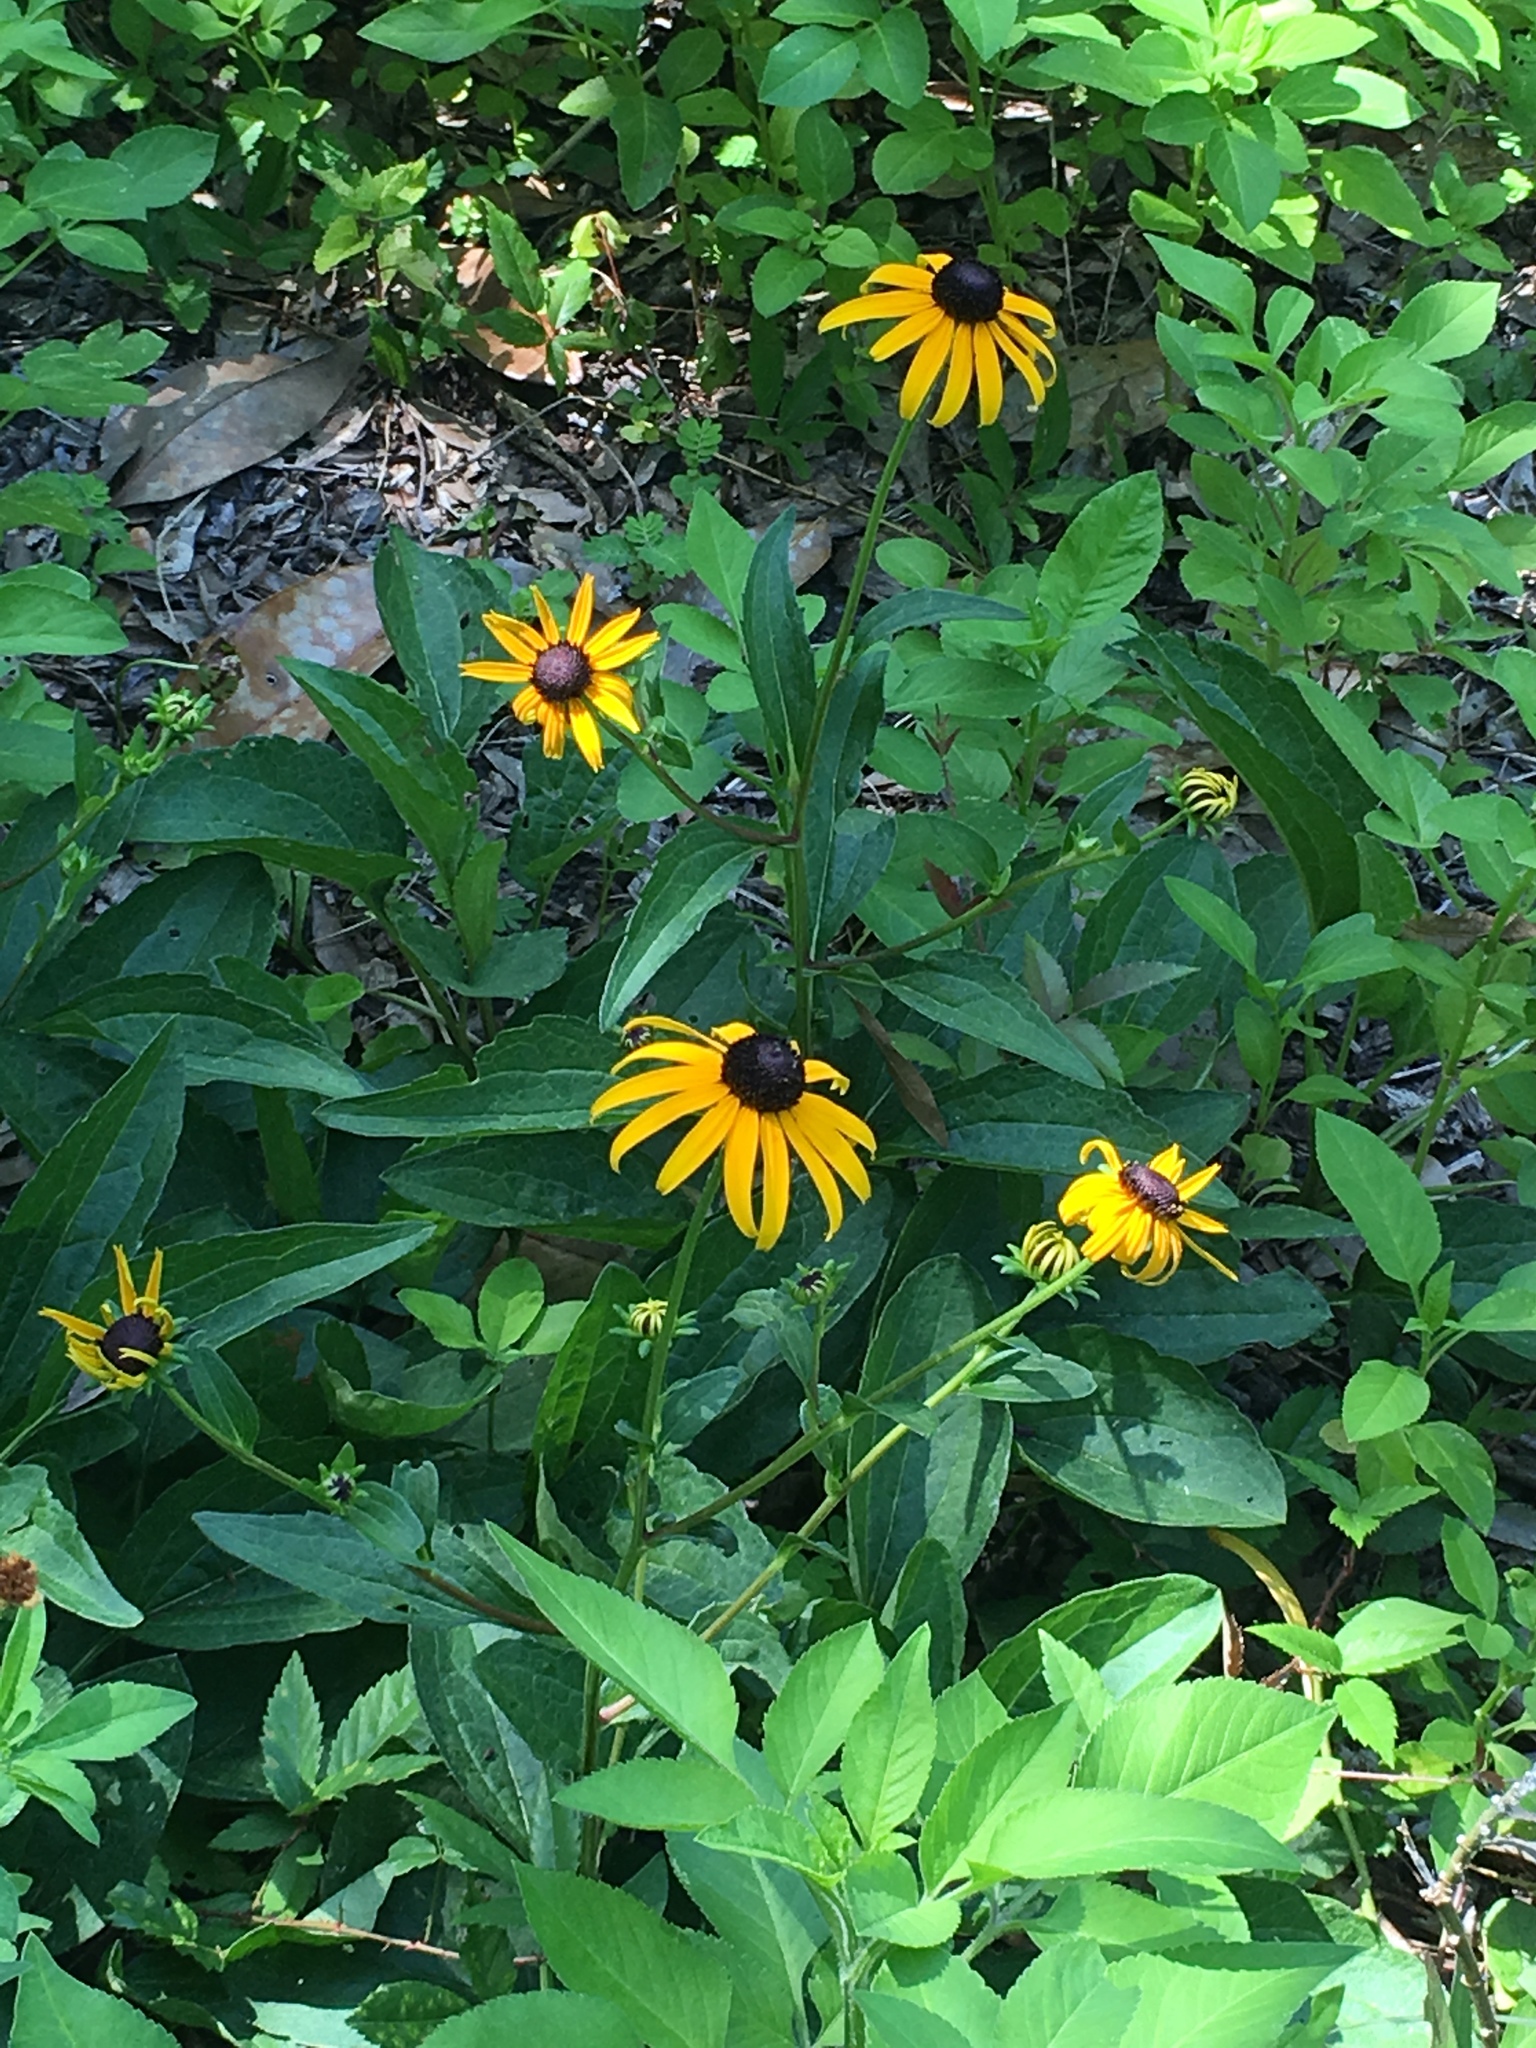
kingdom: Plantae
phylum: Tracheophyta
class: Magnoliopsida
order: Asterales
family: Asteraceae
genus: Rudbeckia
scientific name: Rudbeckia hirta
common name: Black-eyed-susan
